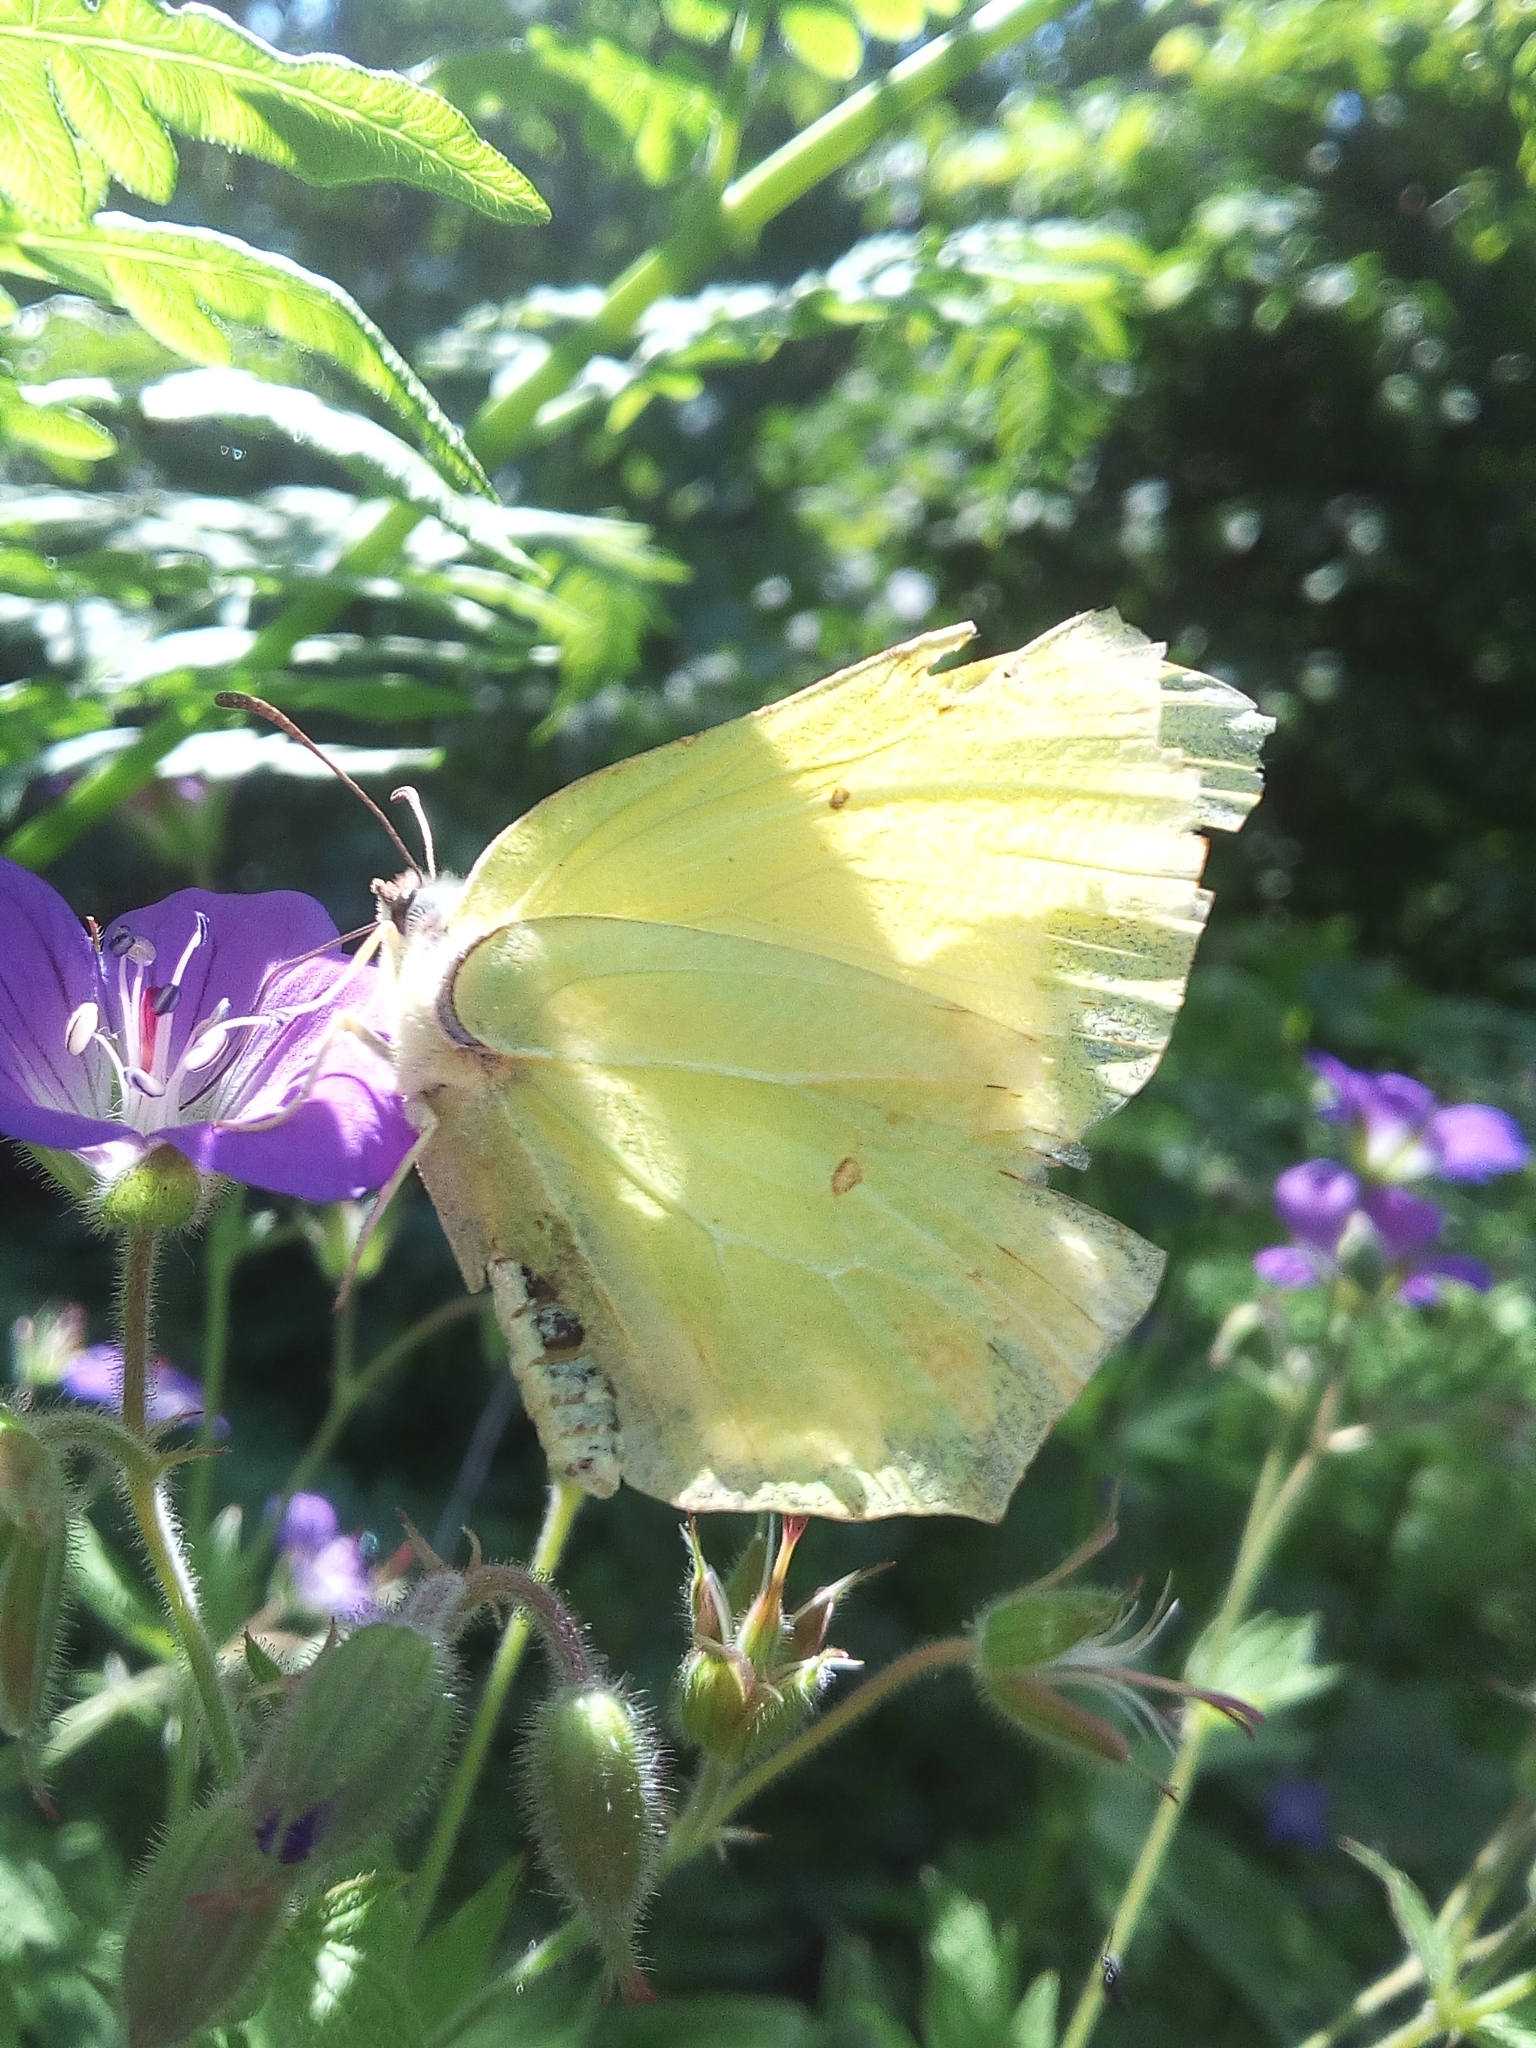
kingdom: Animalia
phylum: Arthropoda
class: Insecta
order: Lepidoptera
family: Pieridae
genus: Gonepteryx
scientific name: Gonepteryx rhamni
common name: Brimstone
